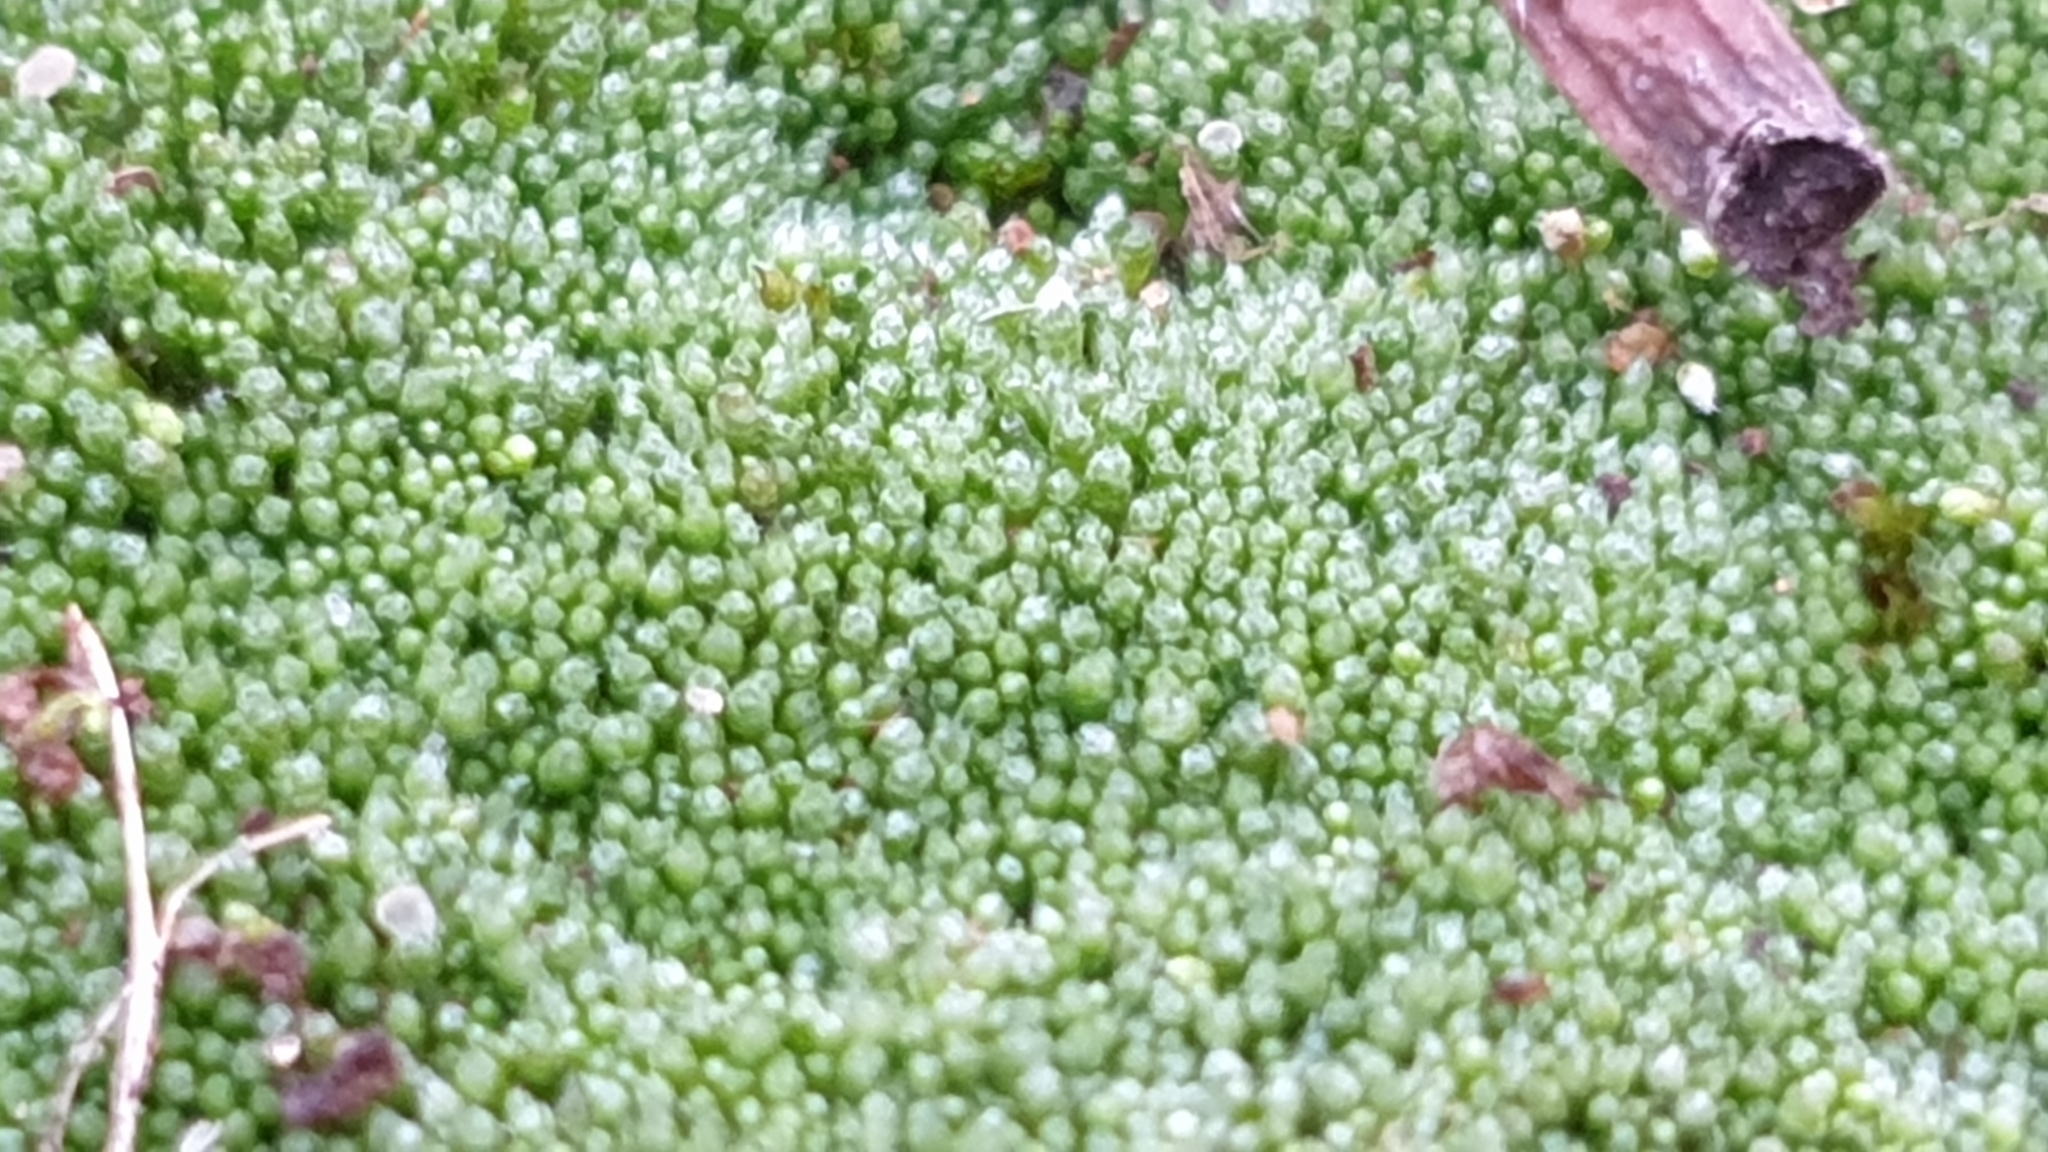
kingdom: Plantae
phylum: Bryophyta
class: Bryopsida
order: Bryales
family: Bryaceae
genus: Bryum
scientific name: Bryum argenteum
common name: Silver-moss
